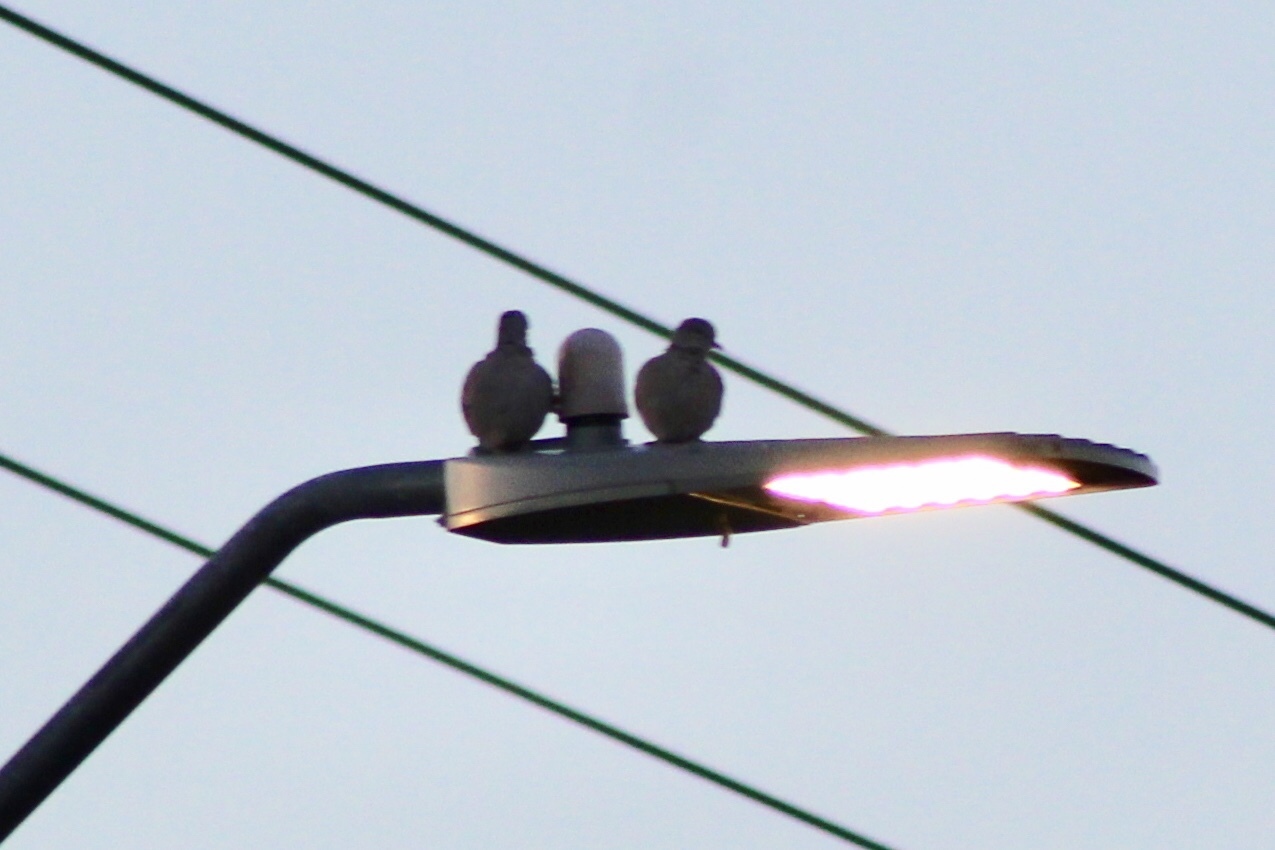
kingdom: Animalia
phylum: Chordata
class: Aves
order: Columbiformes
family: Columbidae
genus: Streptopelia
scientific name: Streptopelia decaocto
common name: Eurasian collared dove
